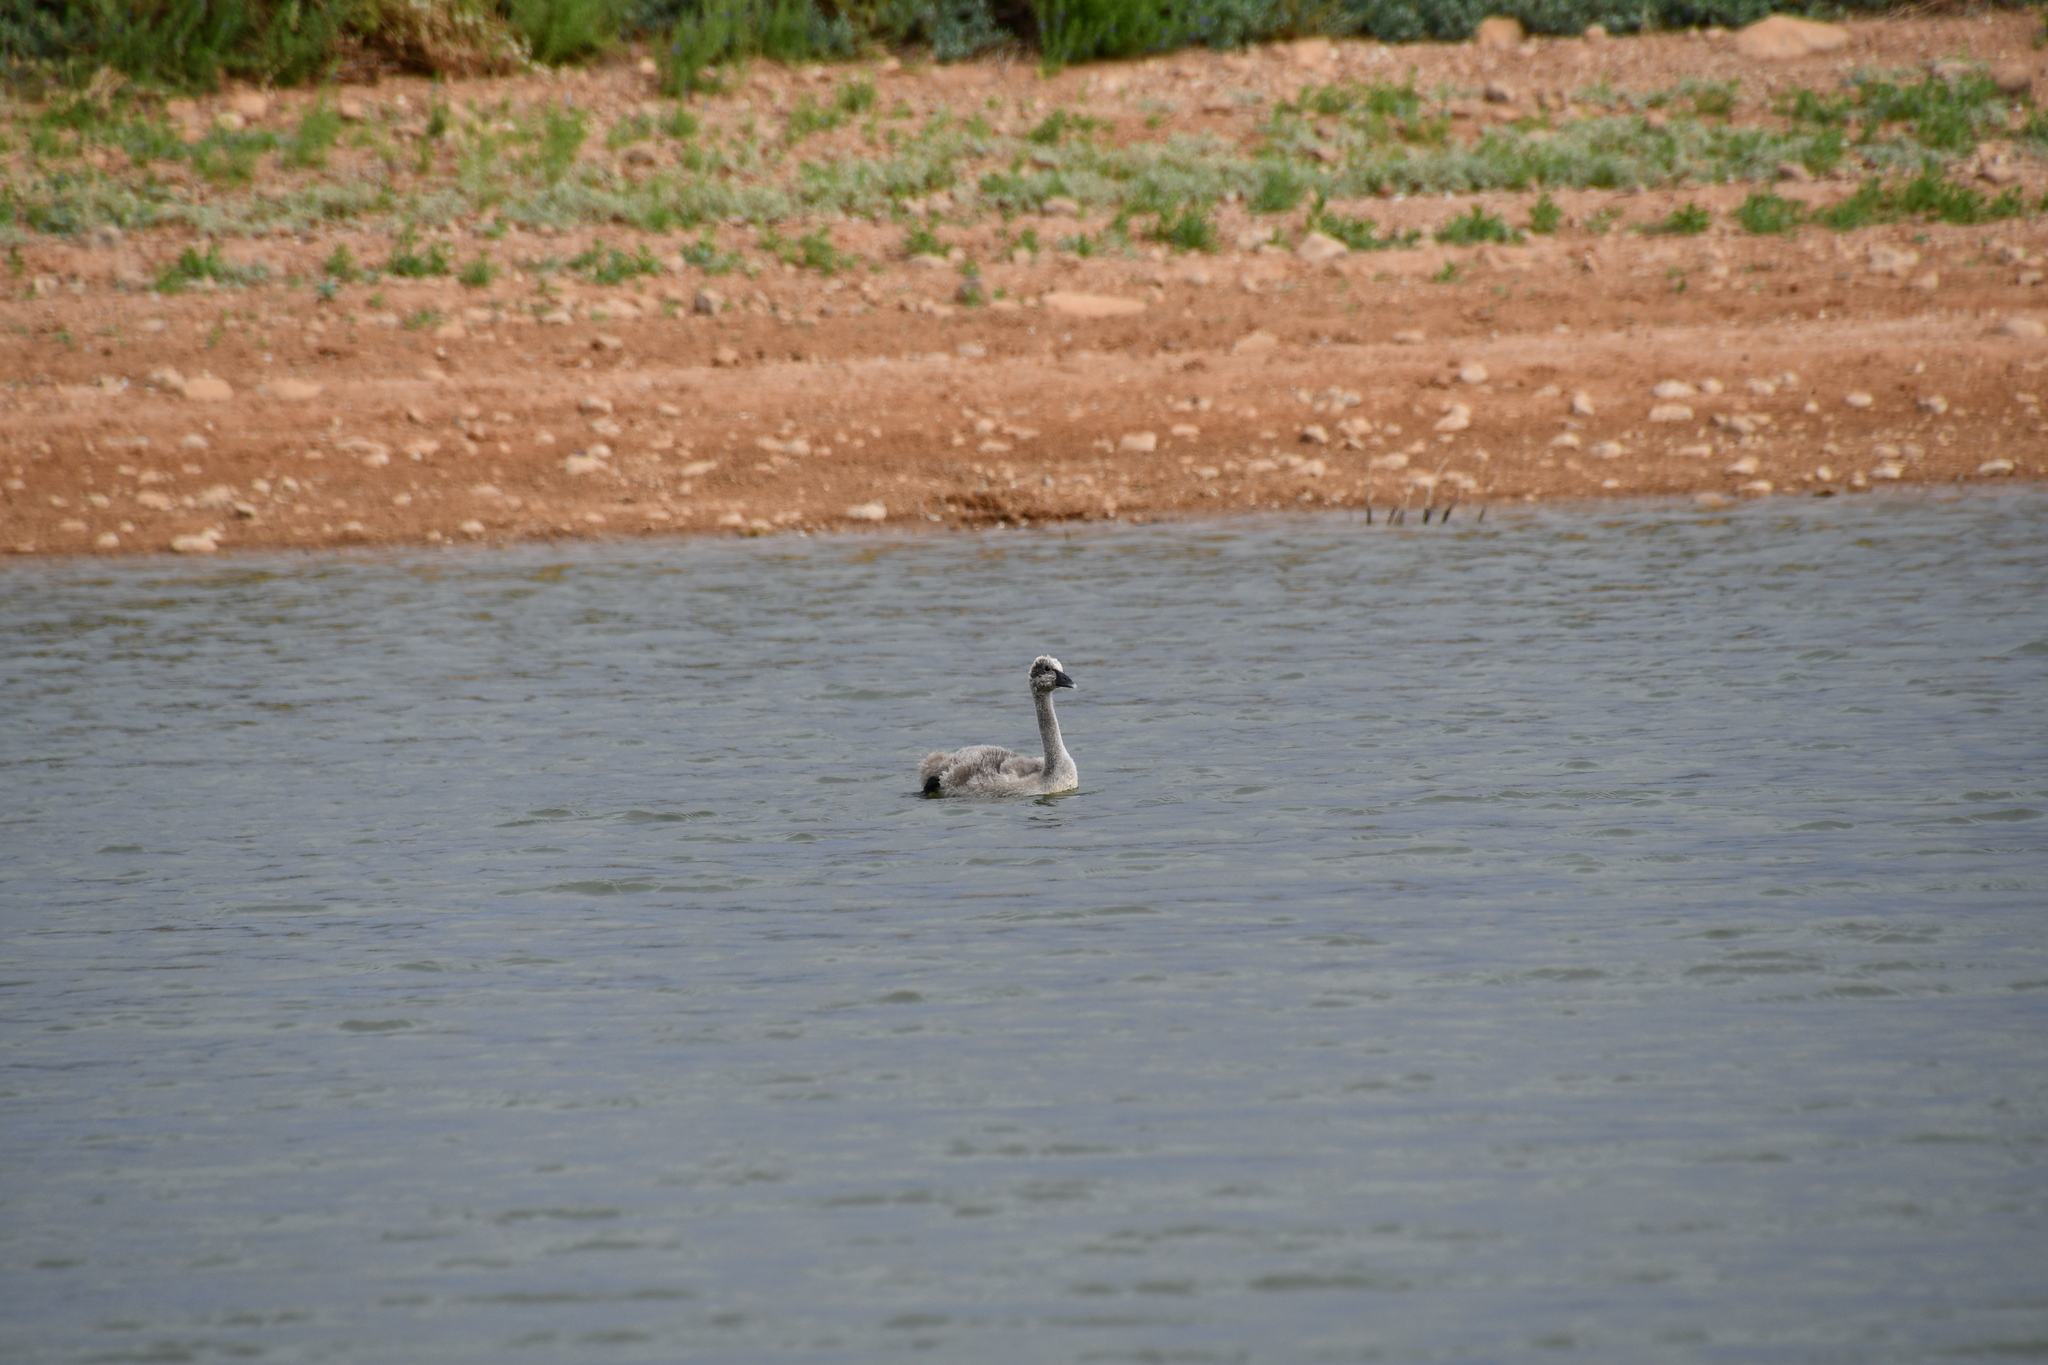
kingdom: Animalia
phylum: Chordata
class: Aves
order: Anseriformes
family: Anatidae
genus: Cygnus
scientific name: Cygnus atratus
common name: Black swan
